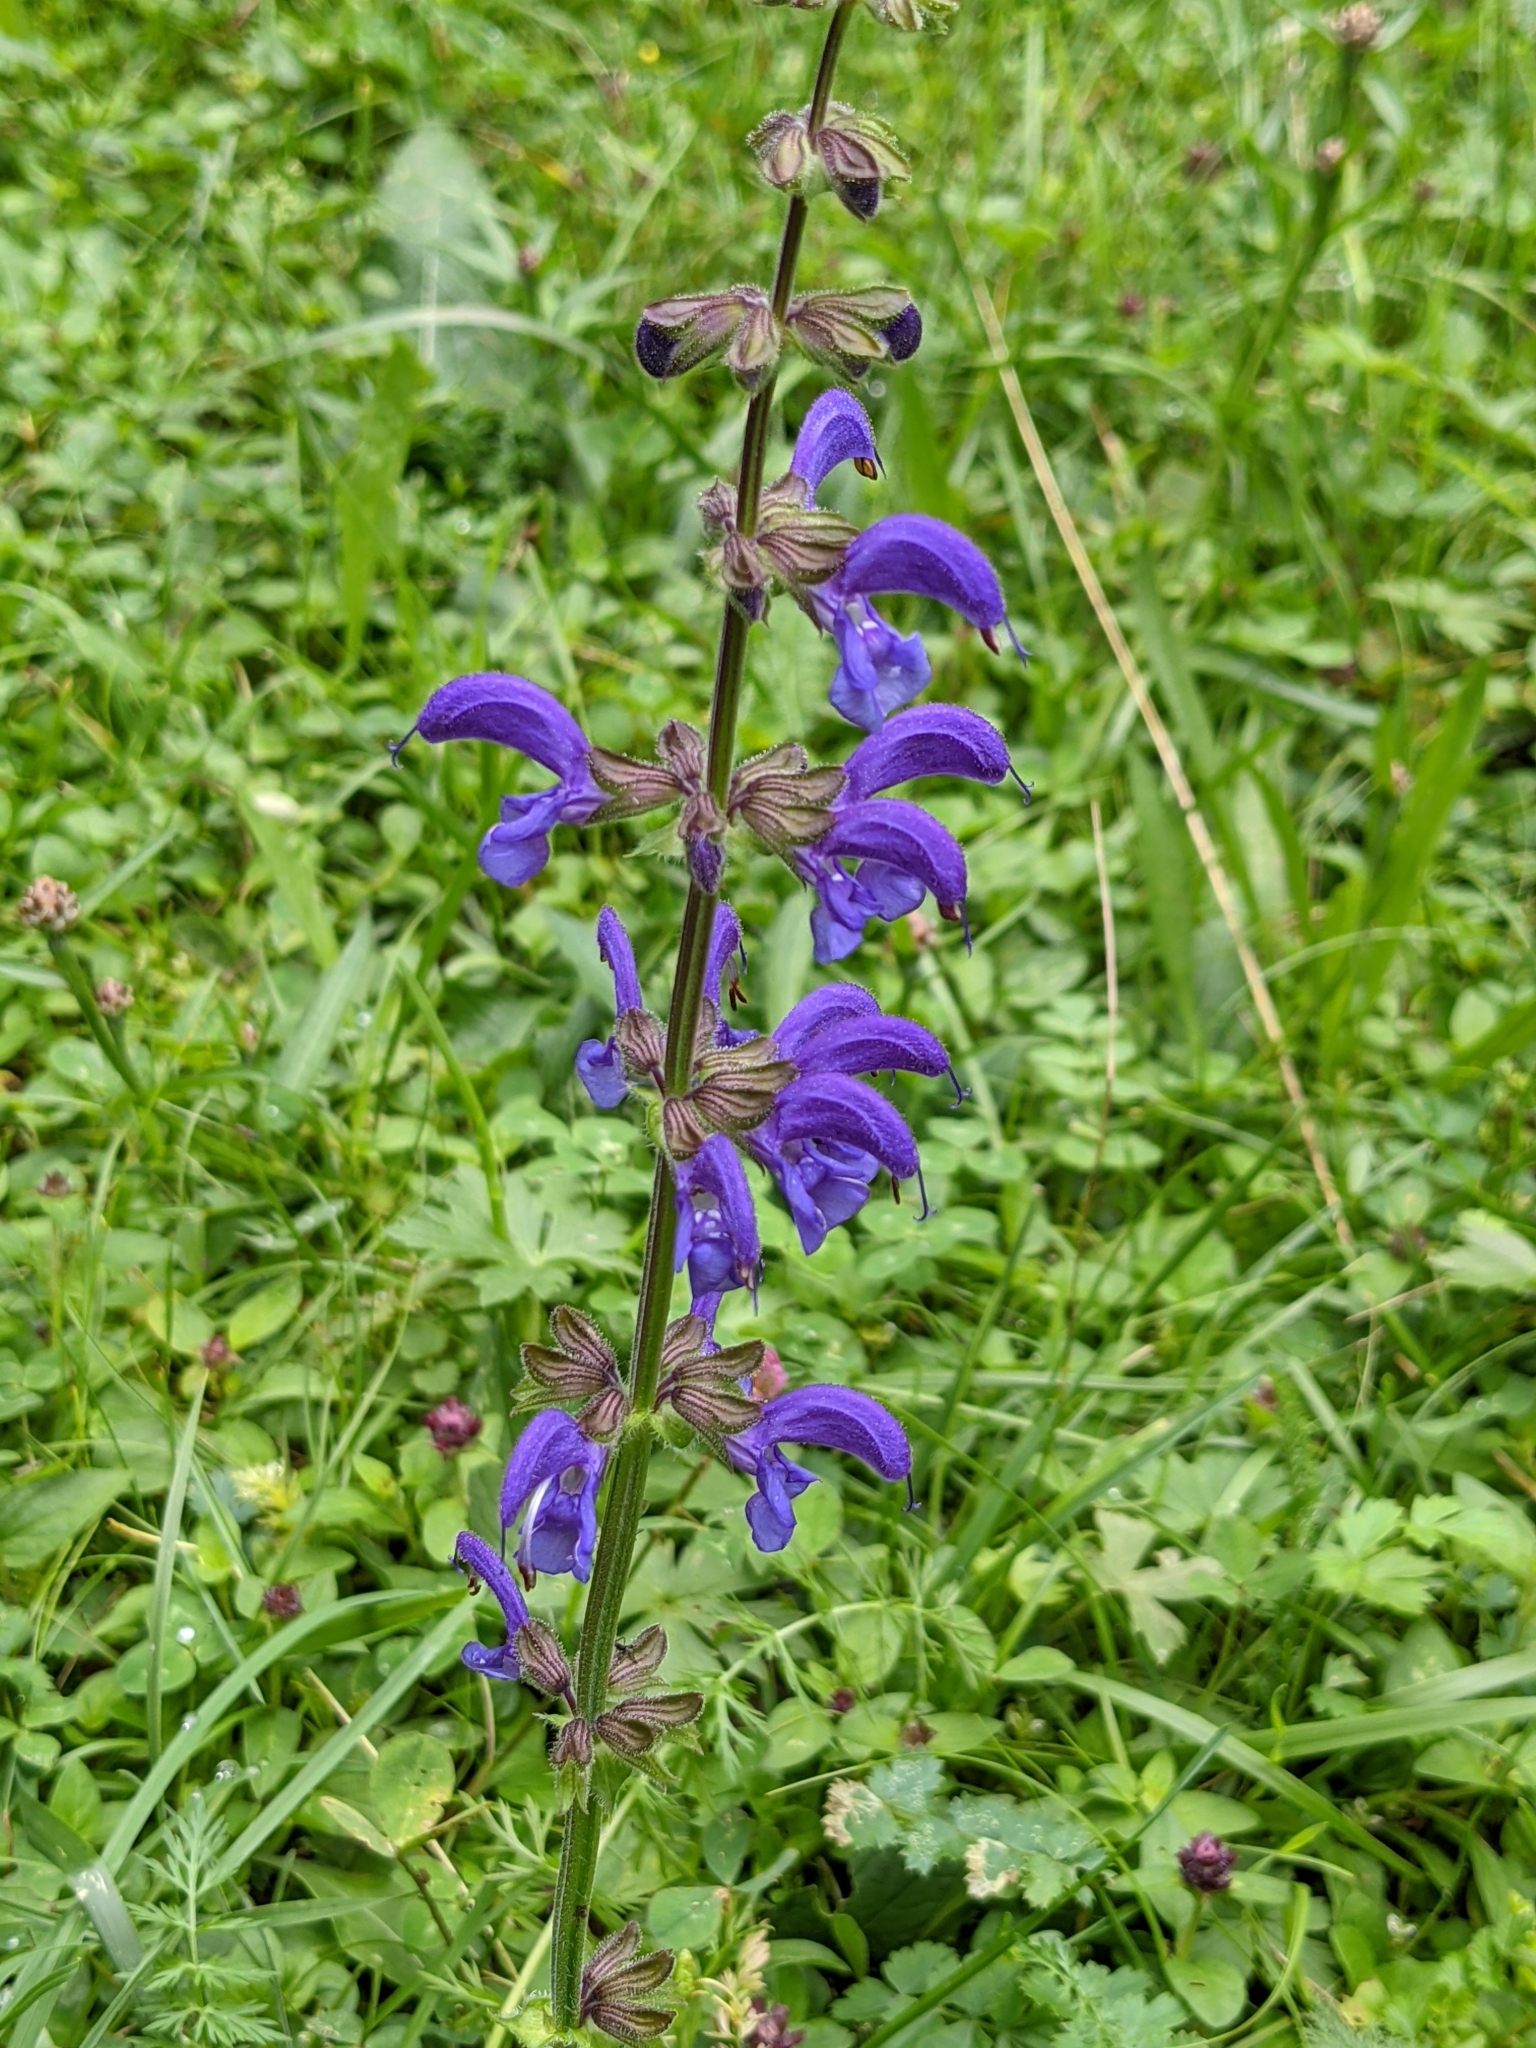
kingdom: Plantae
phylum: Tracheophyta
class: Magnoliopsida
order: Lamiales
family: Lamiaceae
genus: Salvia
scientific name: Salvia pratensis
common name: Meadow sage
